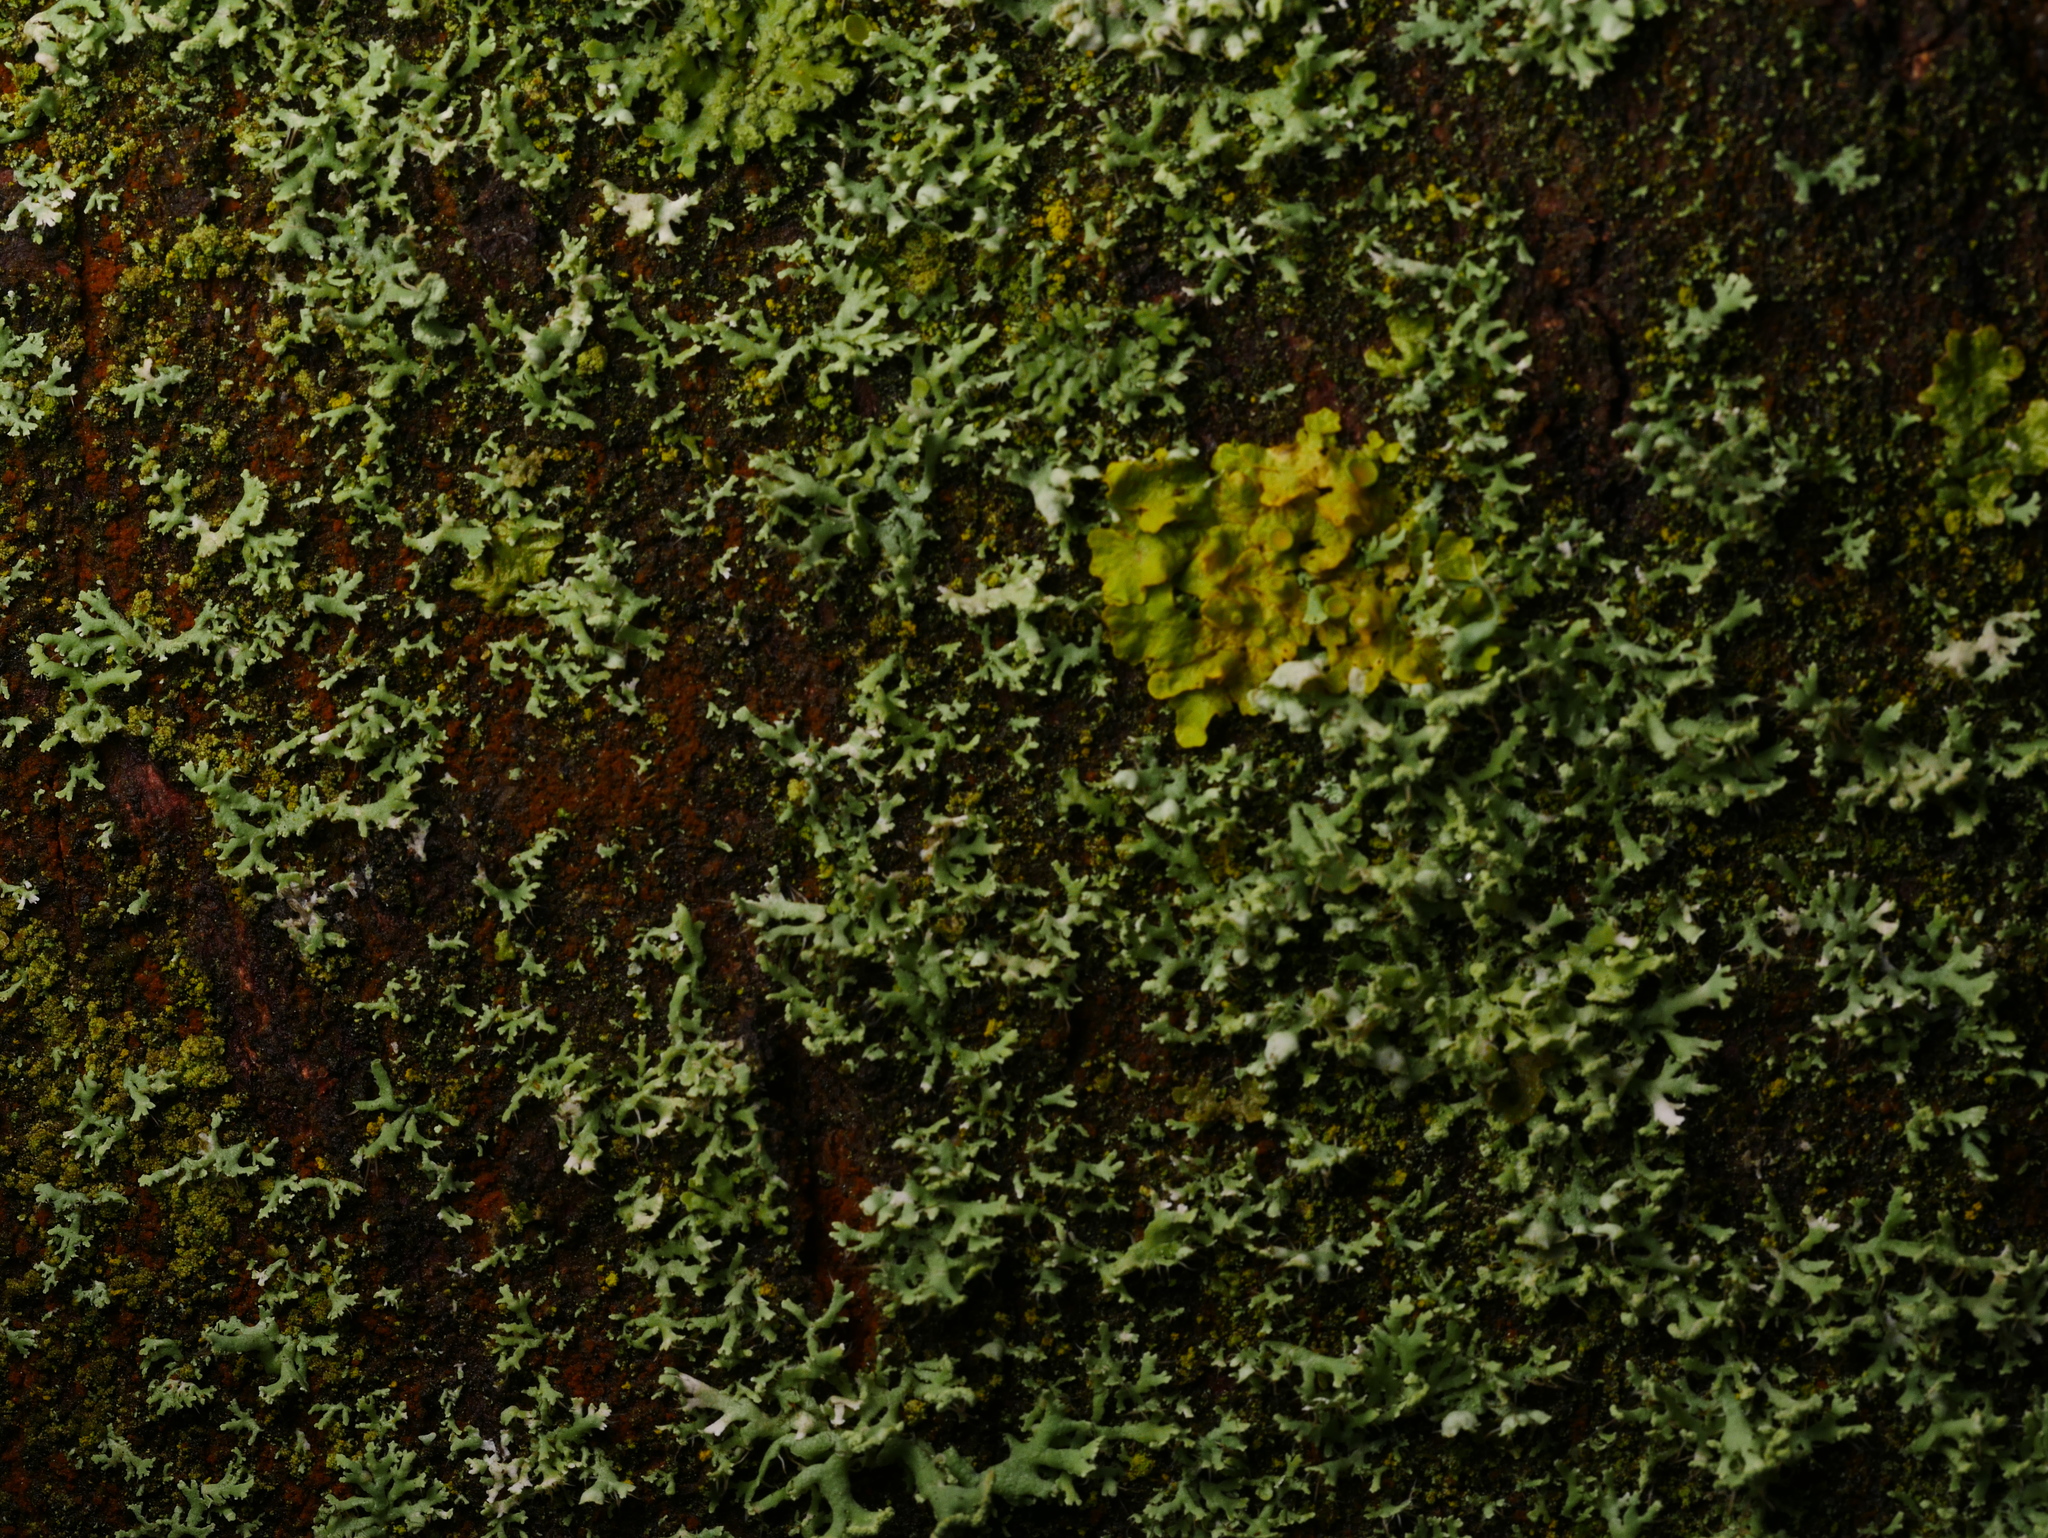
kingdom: Fungi
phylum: Ascomycota
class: Lecanoromycetes
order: Teloschistales
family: Teloschistaceae
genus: Xanthoria
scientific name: Xanthoria parietina
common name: Common orange lichen
